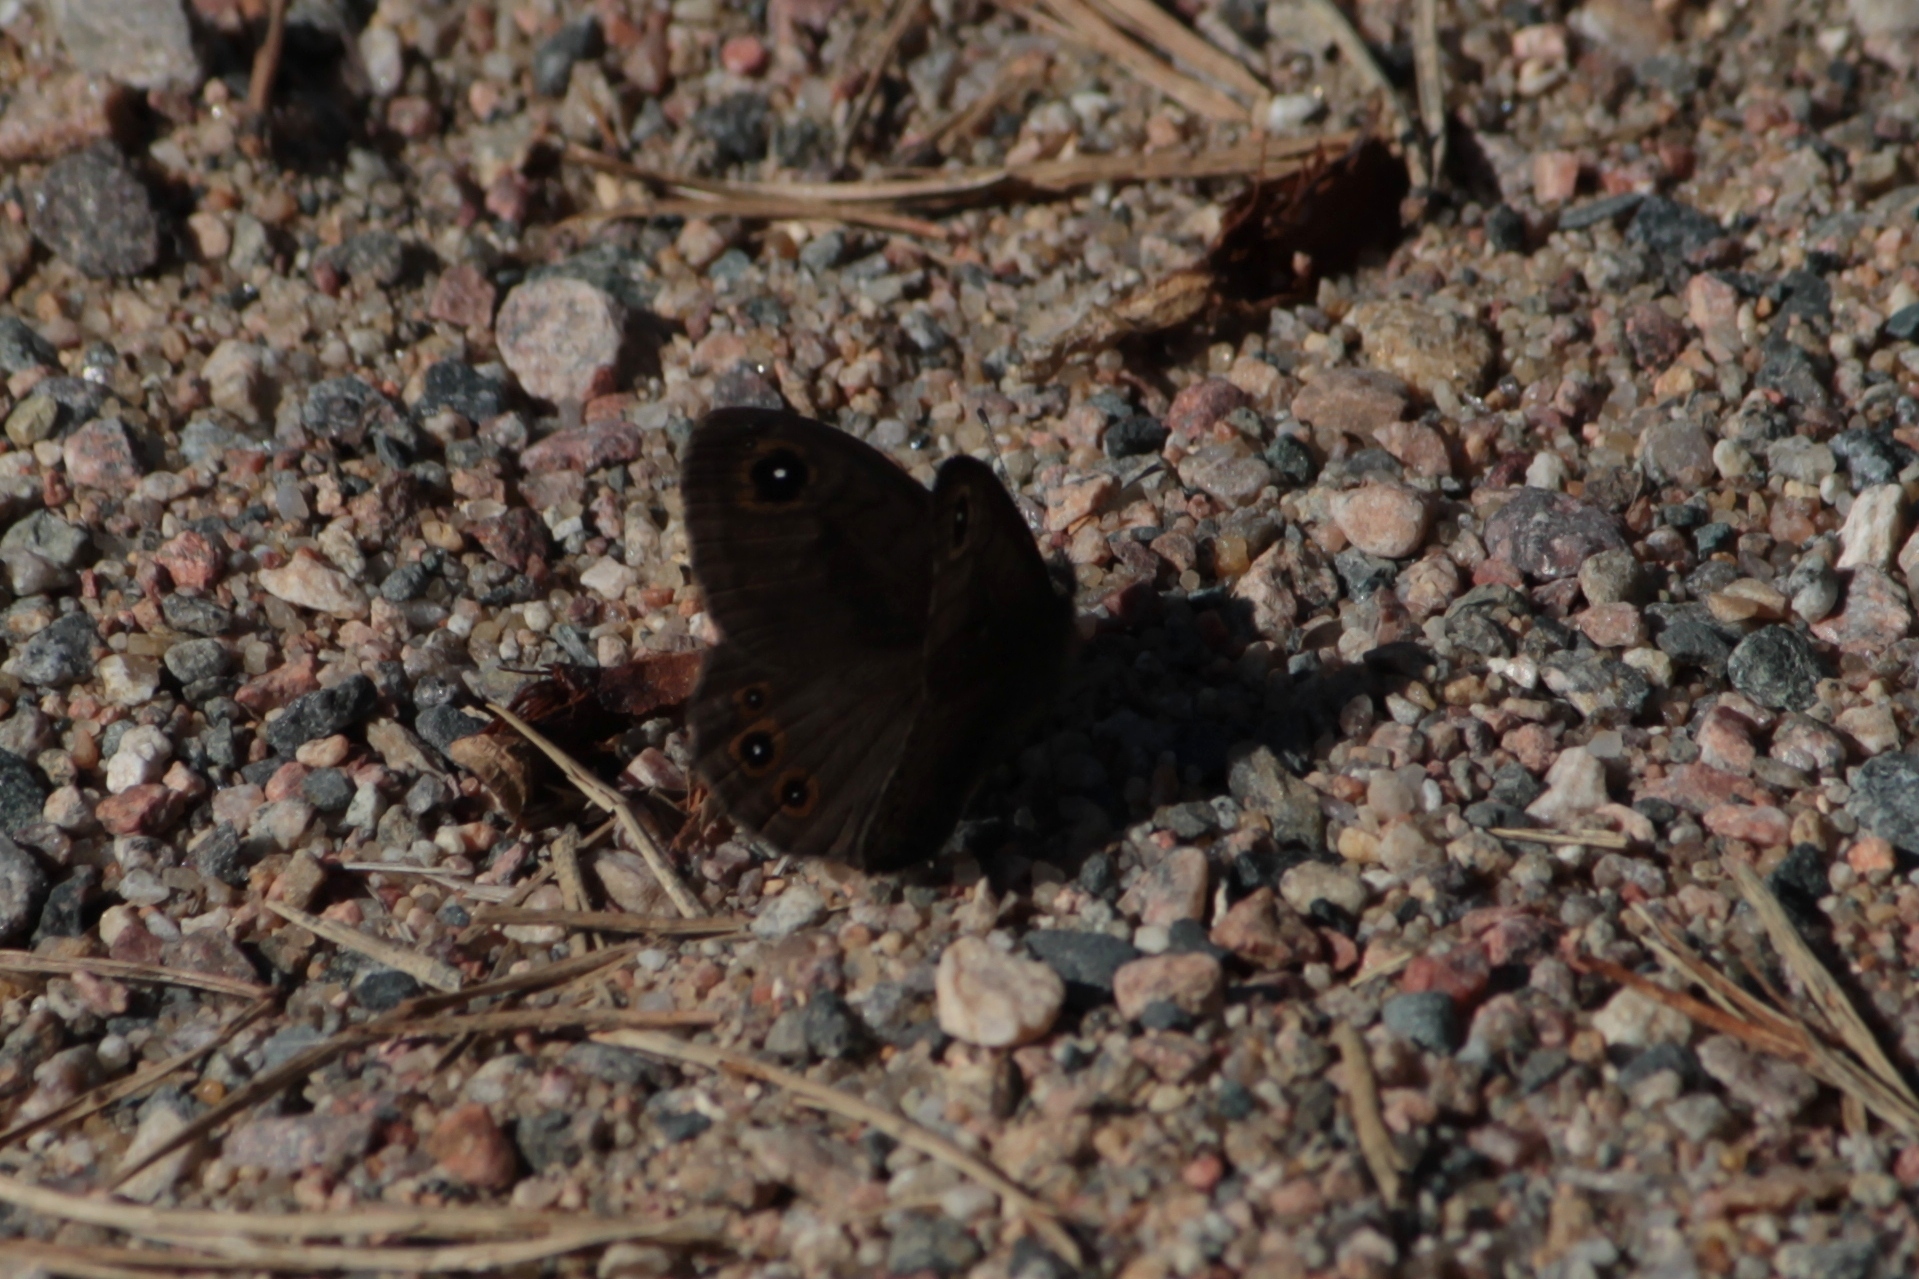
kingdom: Animalia
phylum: Arthropoda
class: Insecta
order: Lepidoptera
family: Nymphalidae
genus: Pararge
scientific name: Pararge petropolitana
